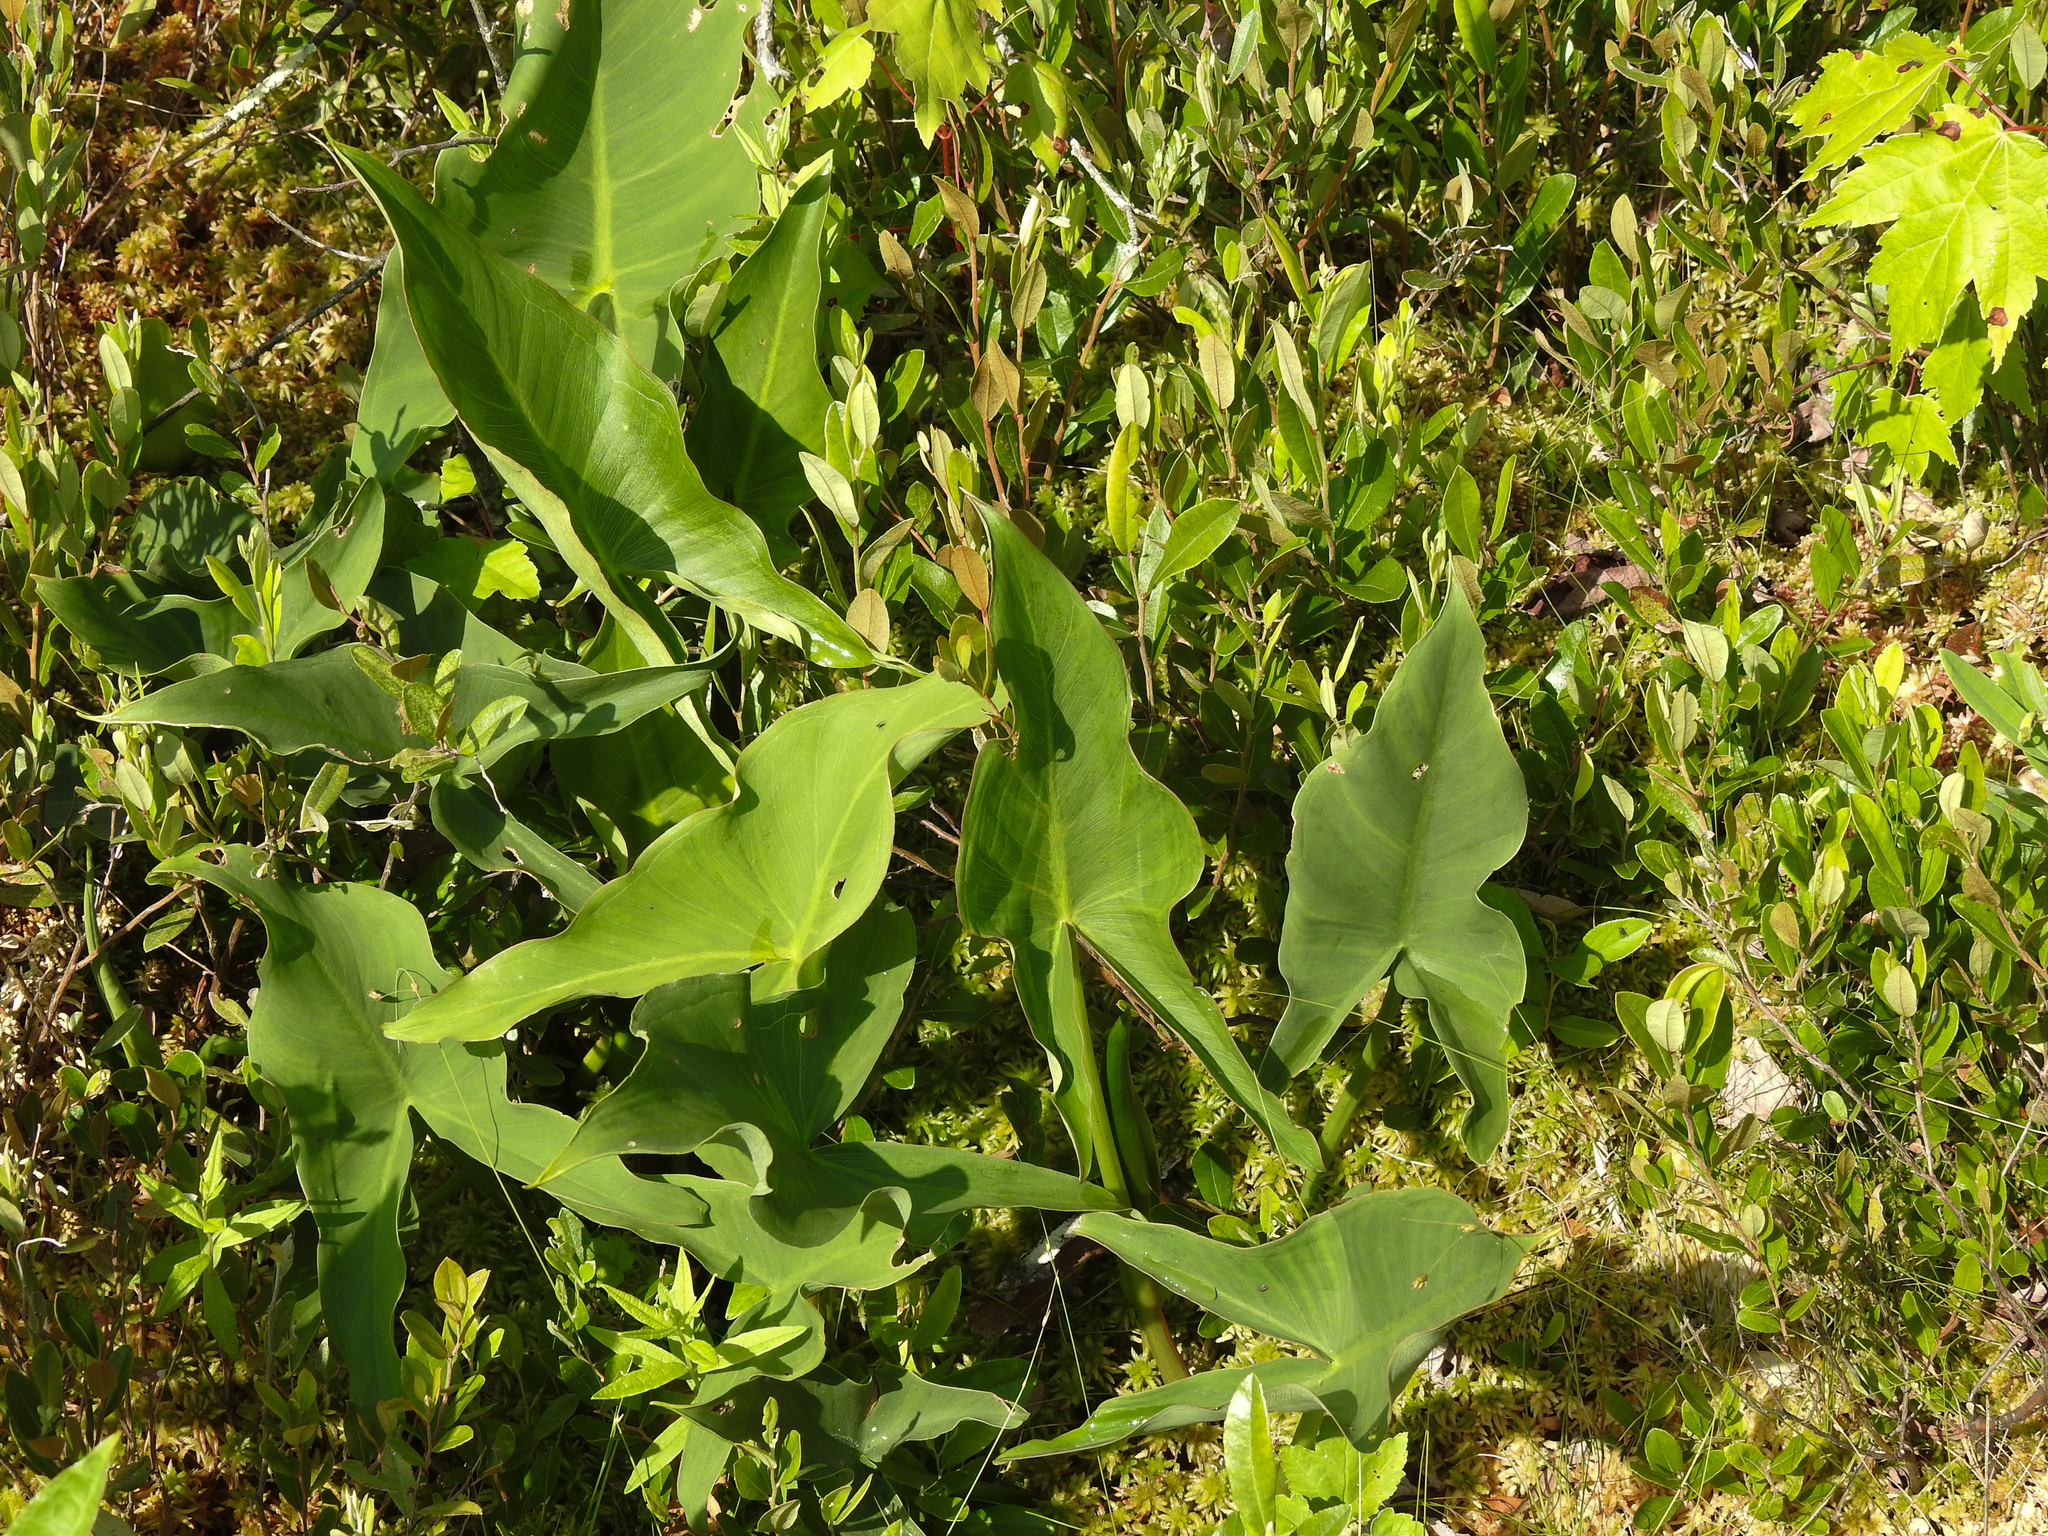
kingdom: Plantae
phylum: Tracheophyta
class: Liliopsida
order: Alismatales
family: Araceae
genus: Peltandra
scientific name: Peltandra virginica
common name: Arrow arum
